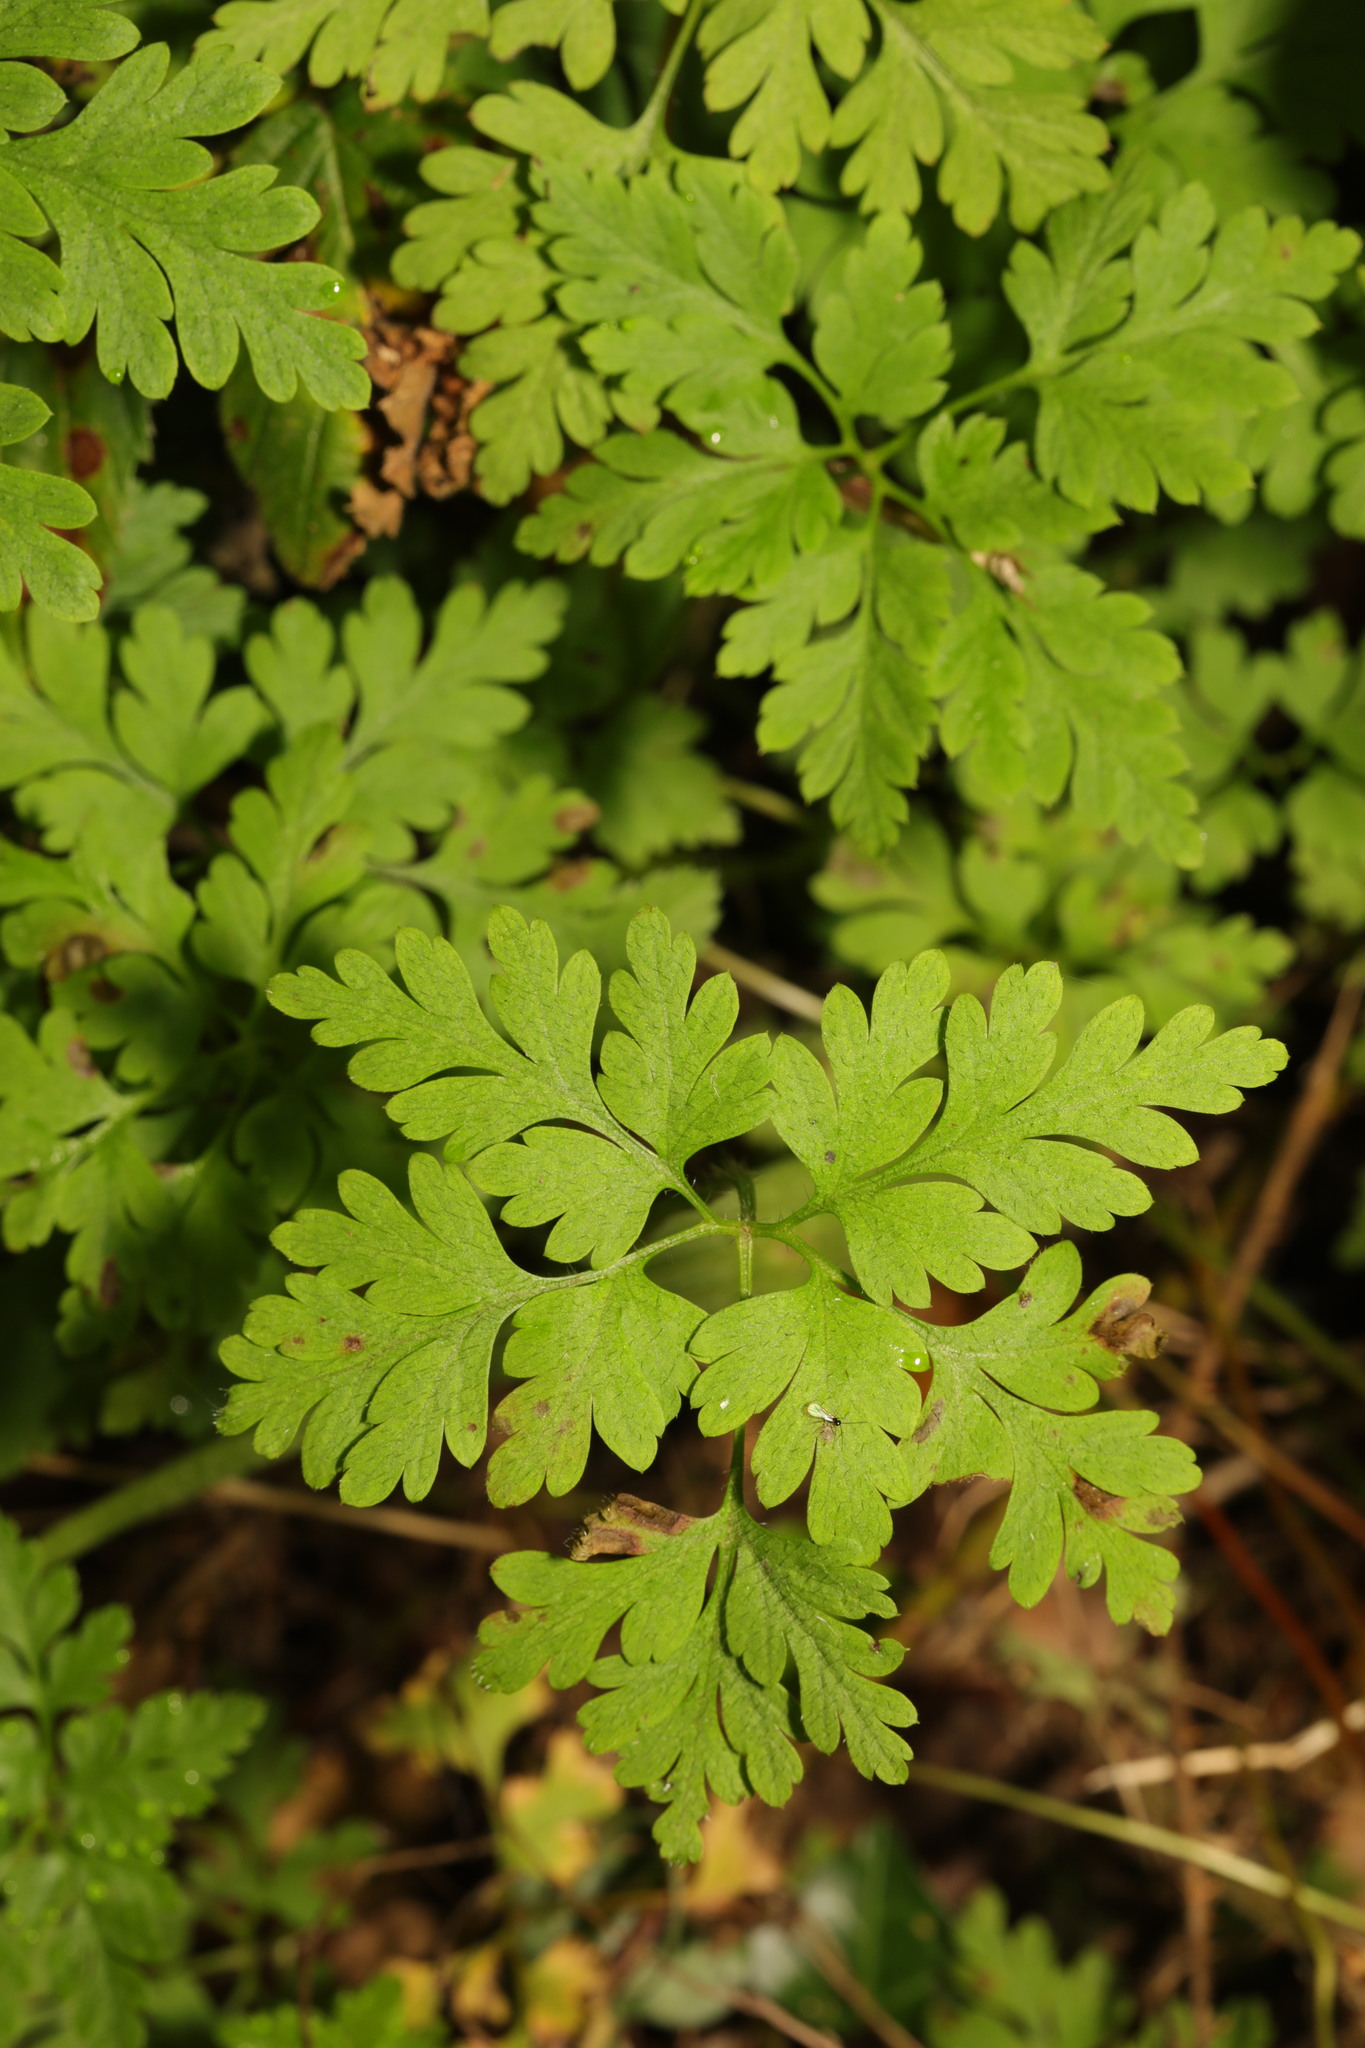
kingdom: Plantae
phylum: Tracheophyta
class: Magnoliopsida
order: Geraniales
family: Geraniaceae
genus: Geranium
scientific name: Geranium robertianum
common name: Herb-robert
